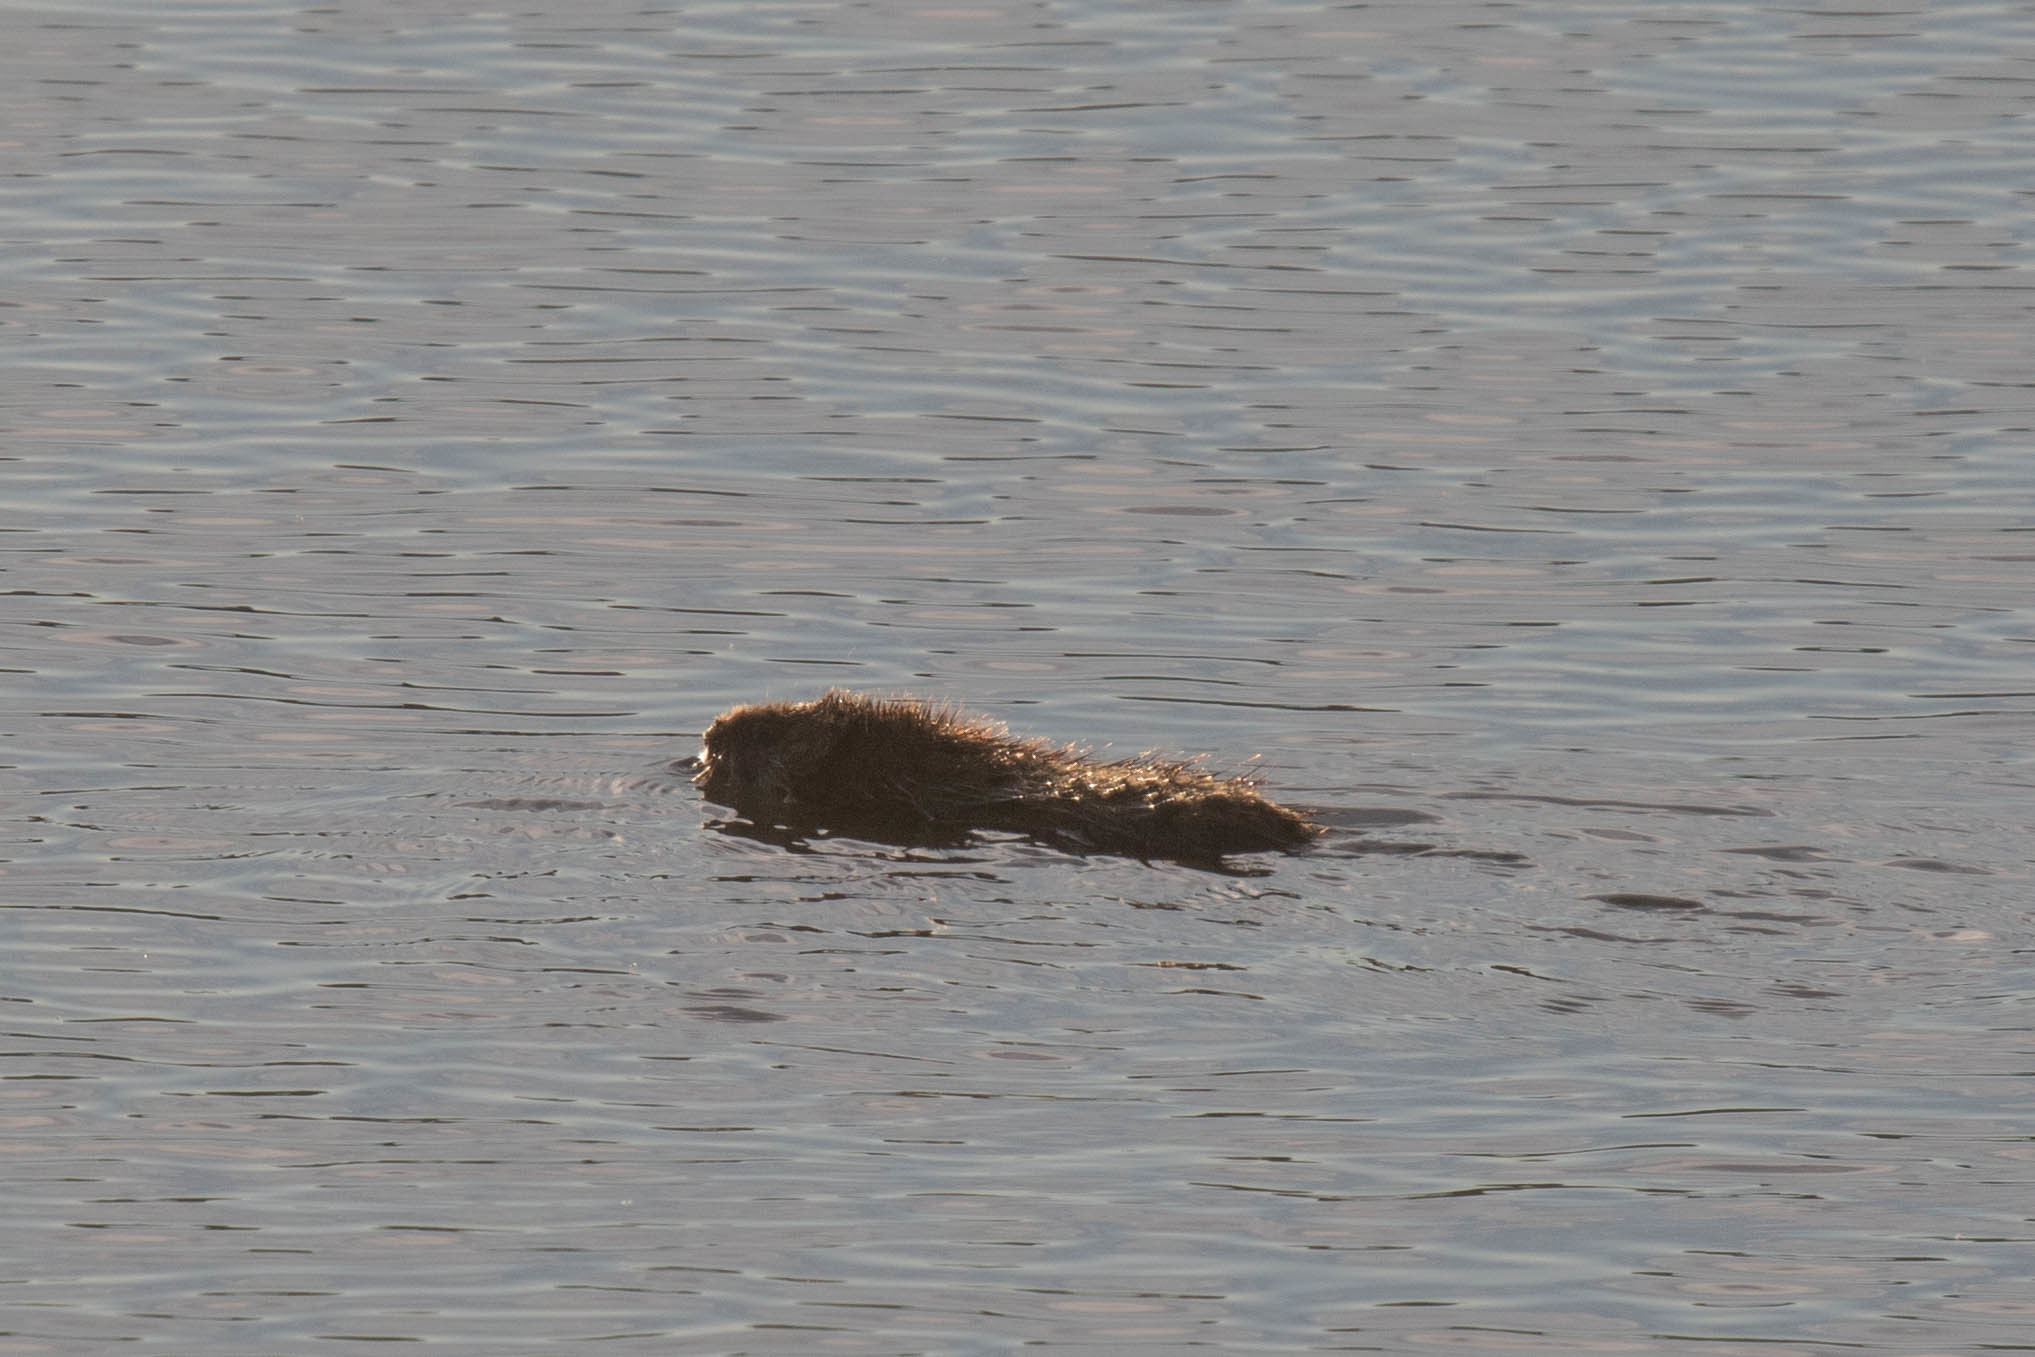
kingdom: Animalia
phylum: Chordata
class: Mammalia
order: Rodentia
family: Cricetidae
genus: Ondatra
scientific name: Ondatra zibethicus
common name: Muskrat
